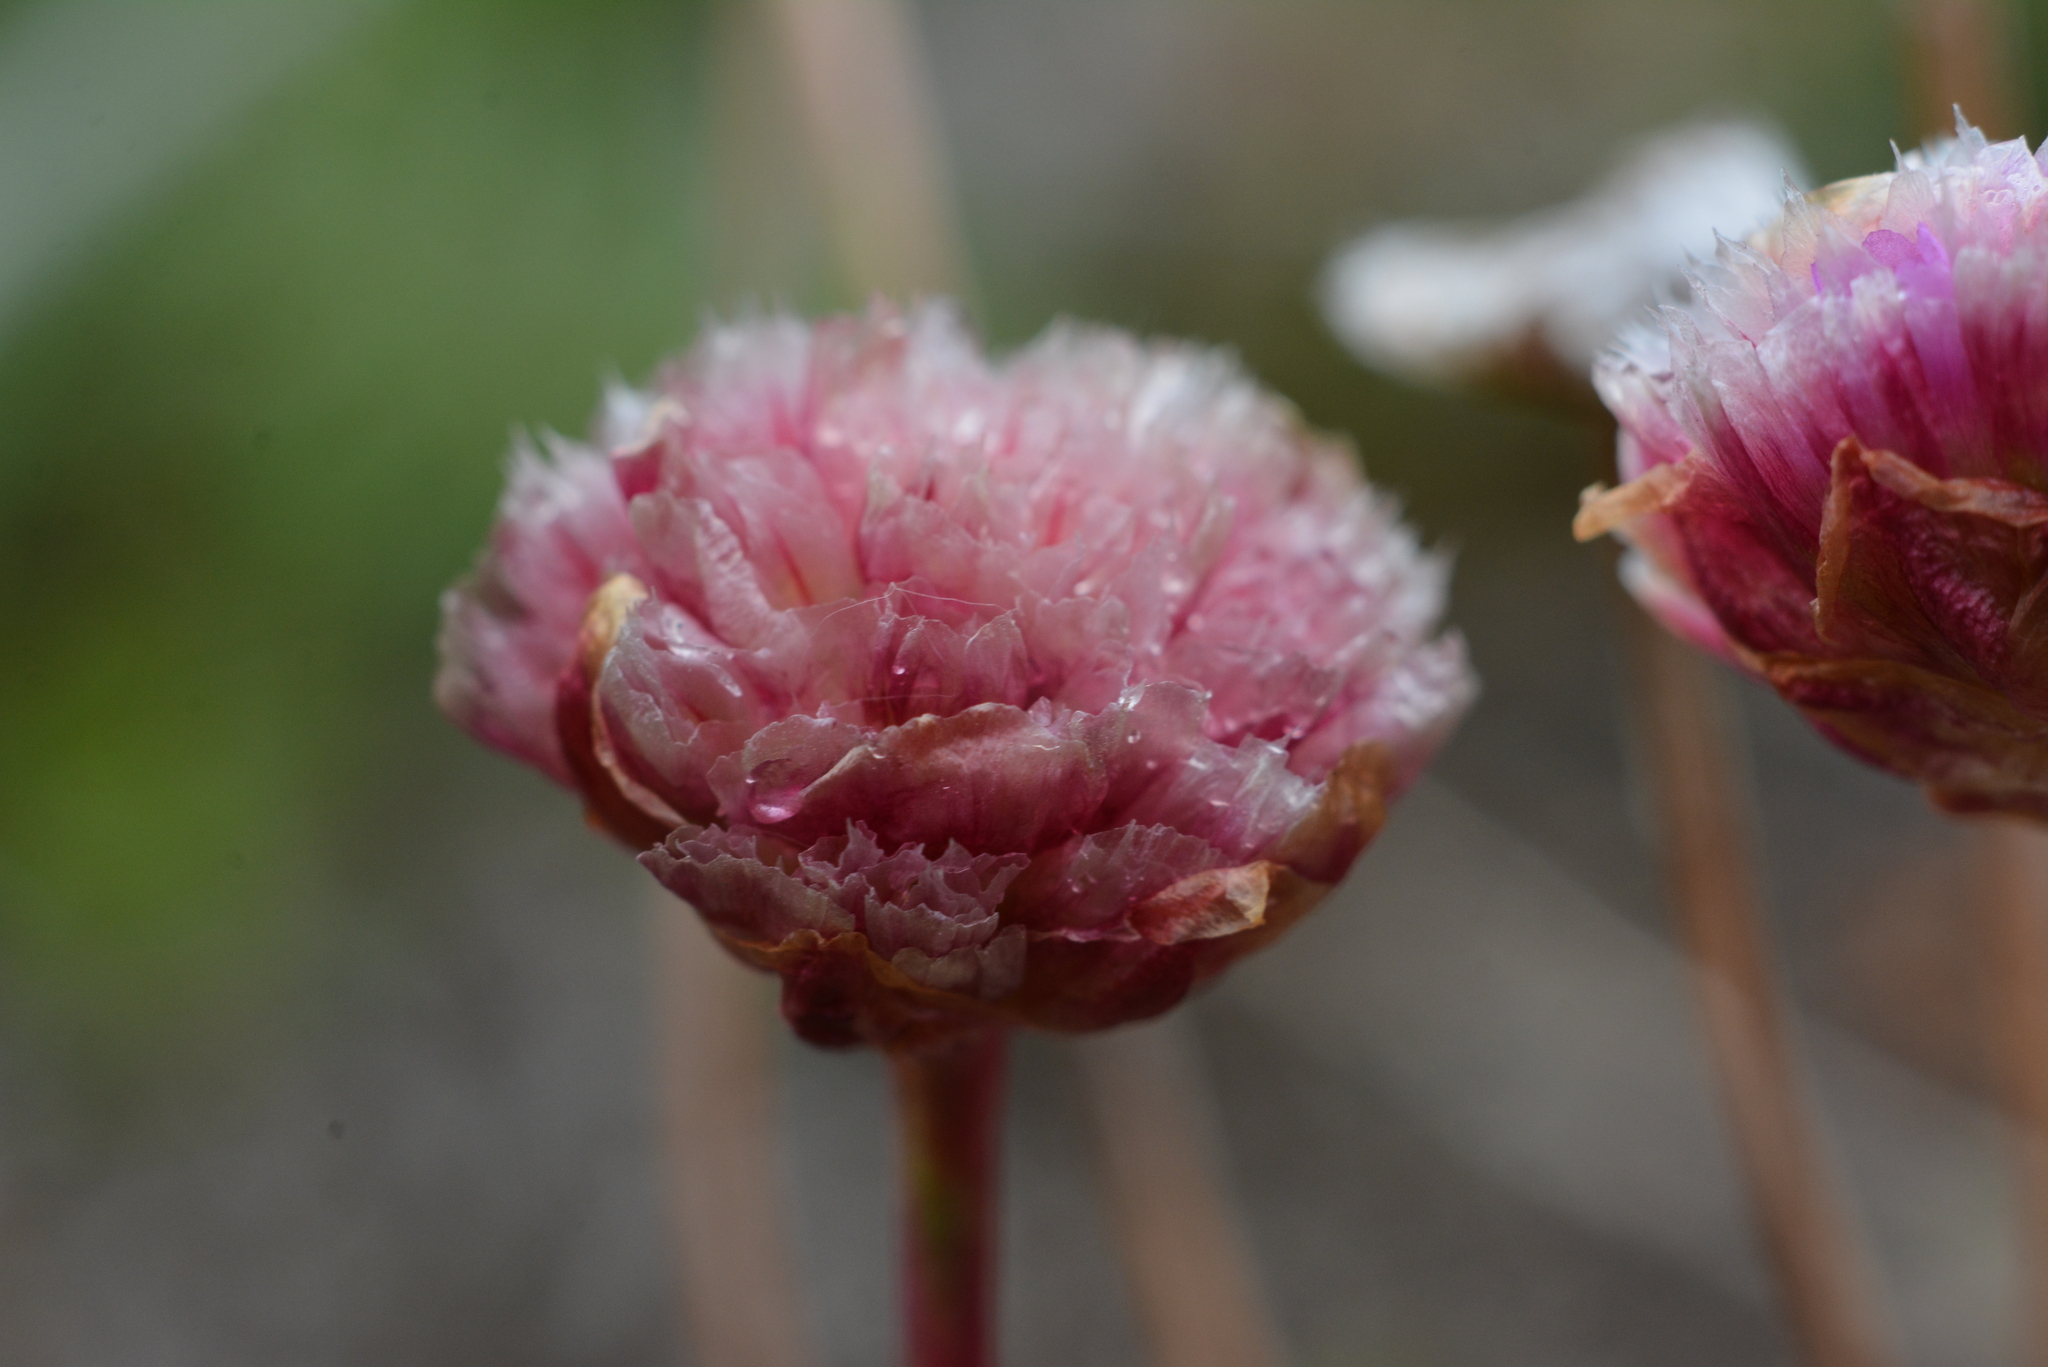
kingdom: Plantae
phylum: Tracheophyta
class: Magnoliopsida
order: Caryophyllales
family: Plumbaginaceae
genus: Armeria
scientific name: Armeria maritima
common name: Thrift
